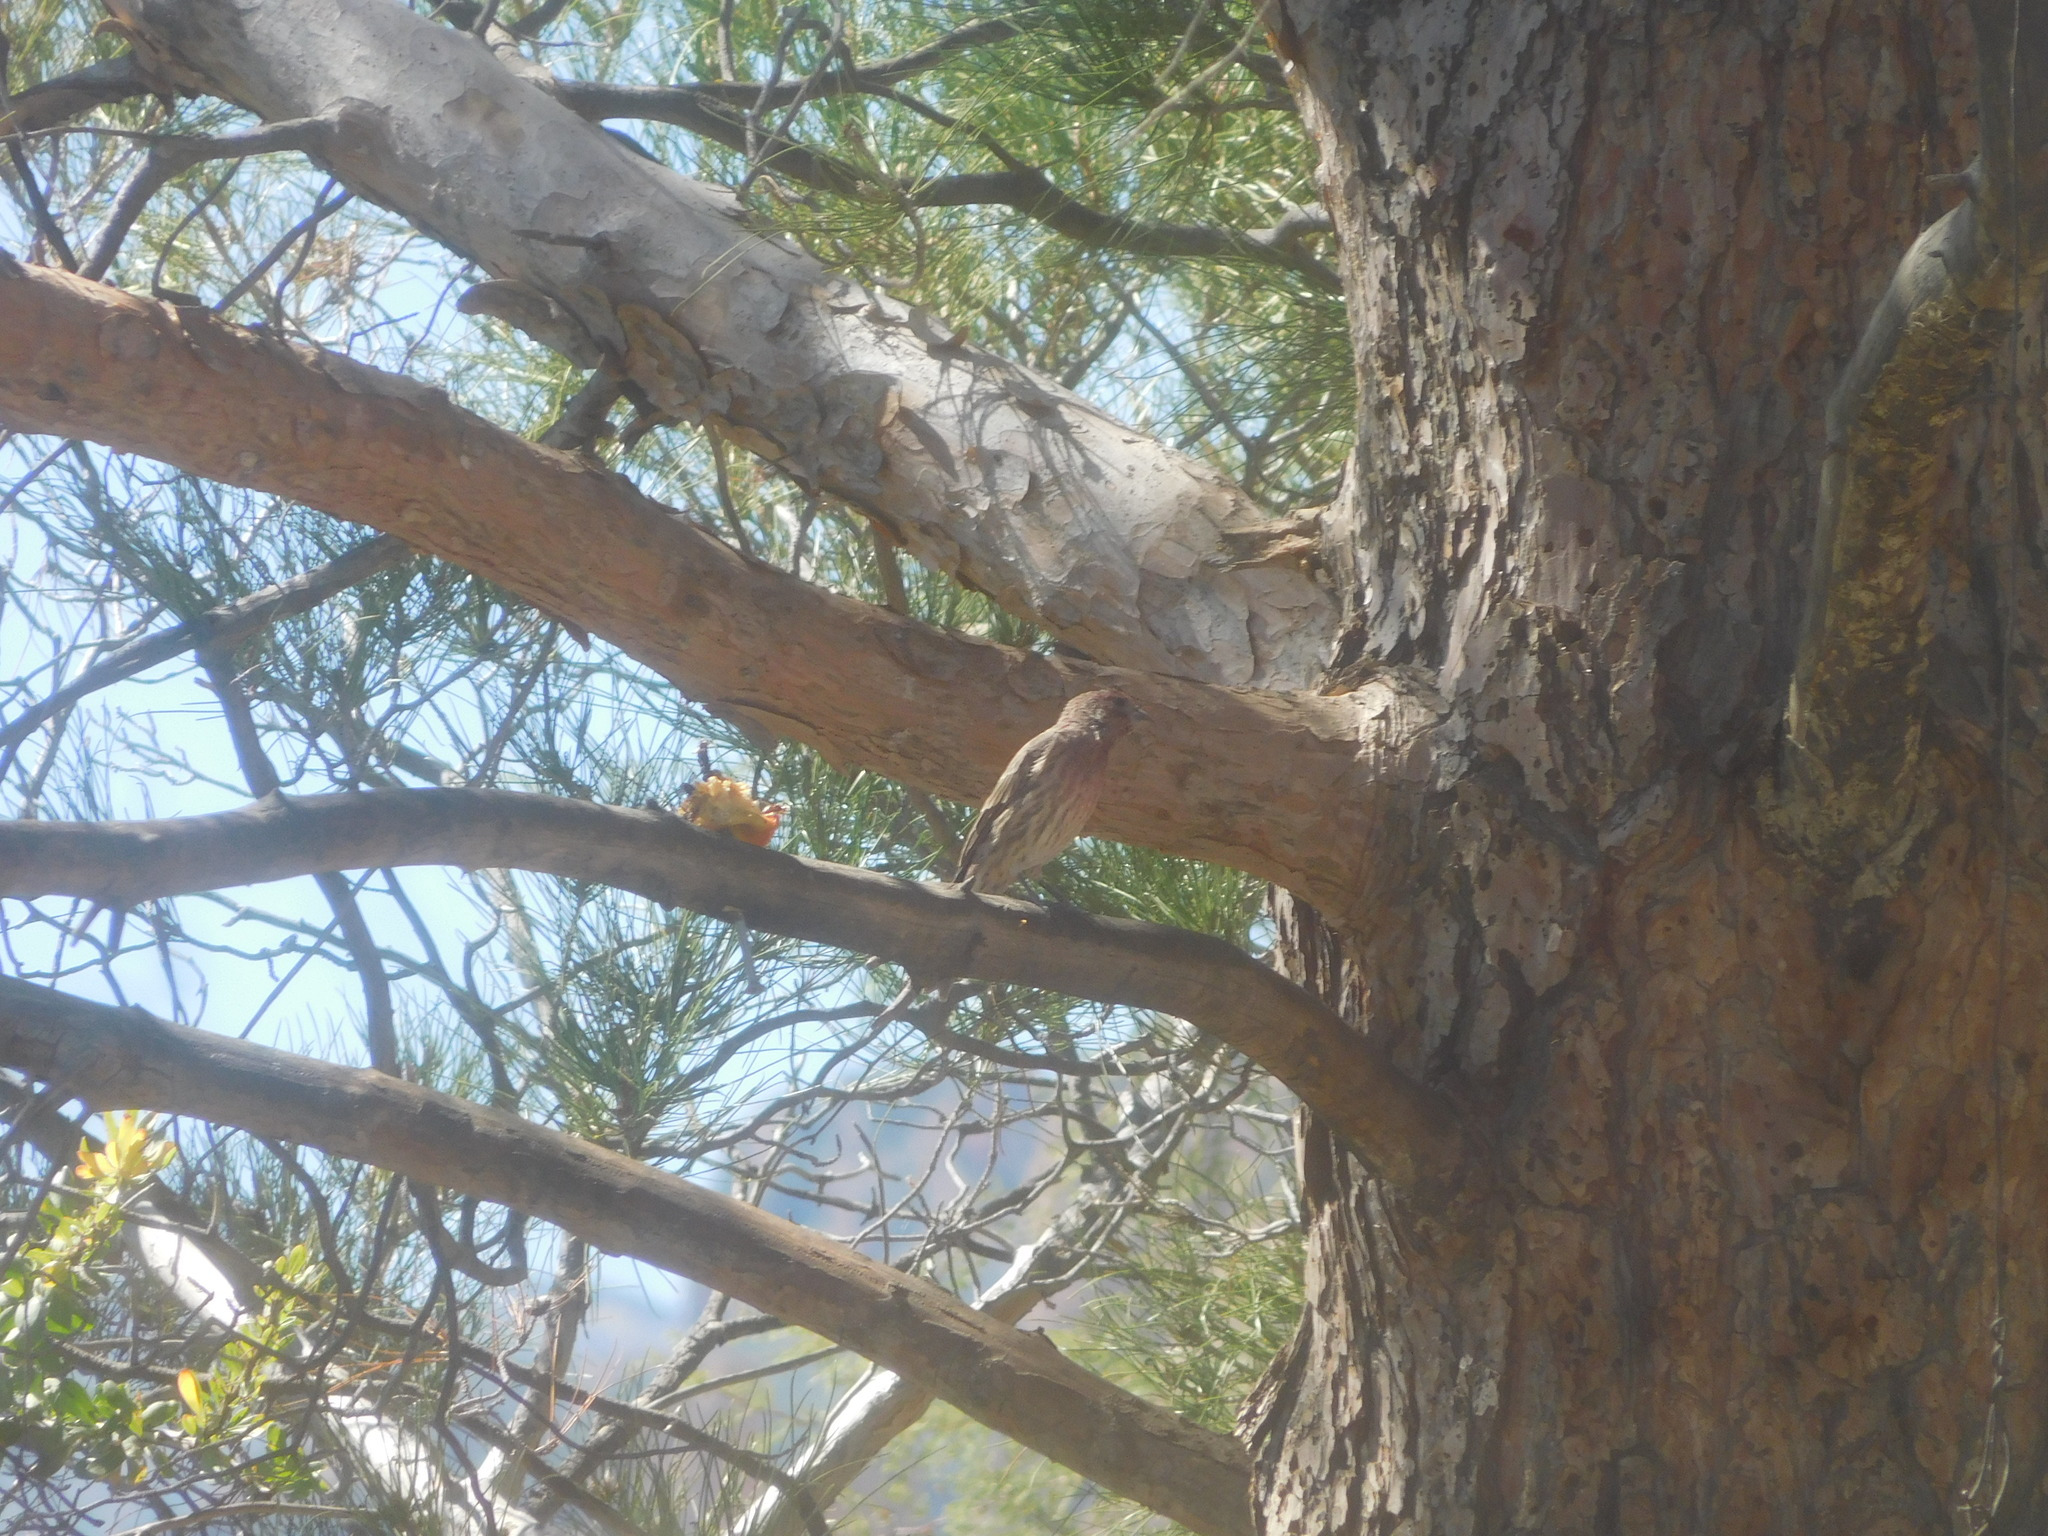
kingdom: Animalia
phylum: Chordata
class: Aves
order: Passeriformes
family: Fringillidae
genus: Haemorhous
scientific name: Haemorhous mexicanus
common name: House finch
